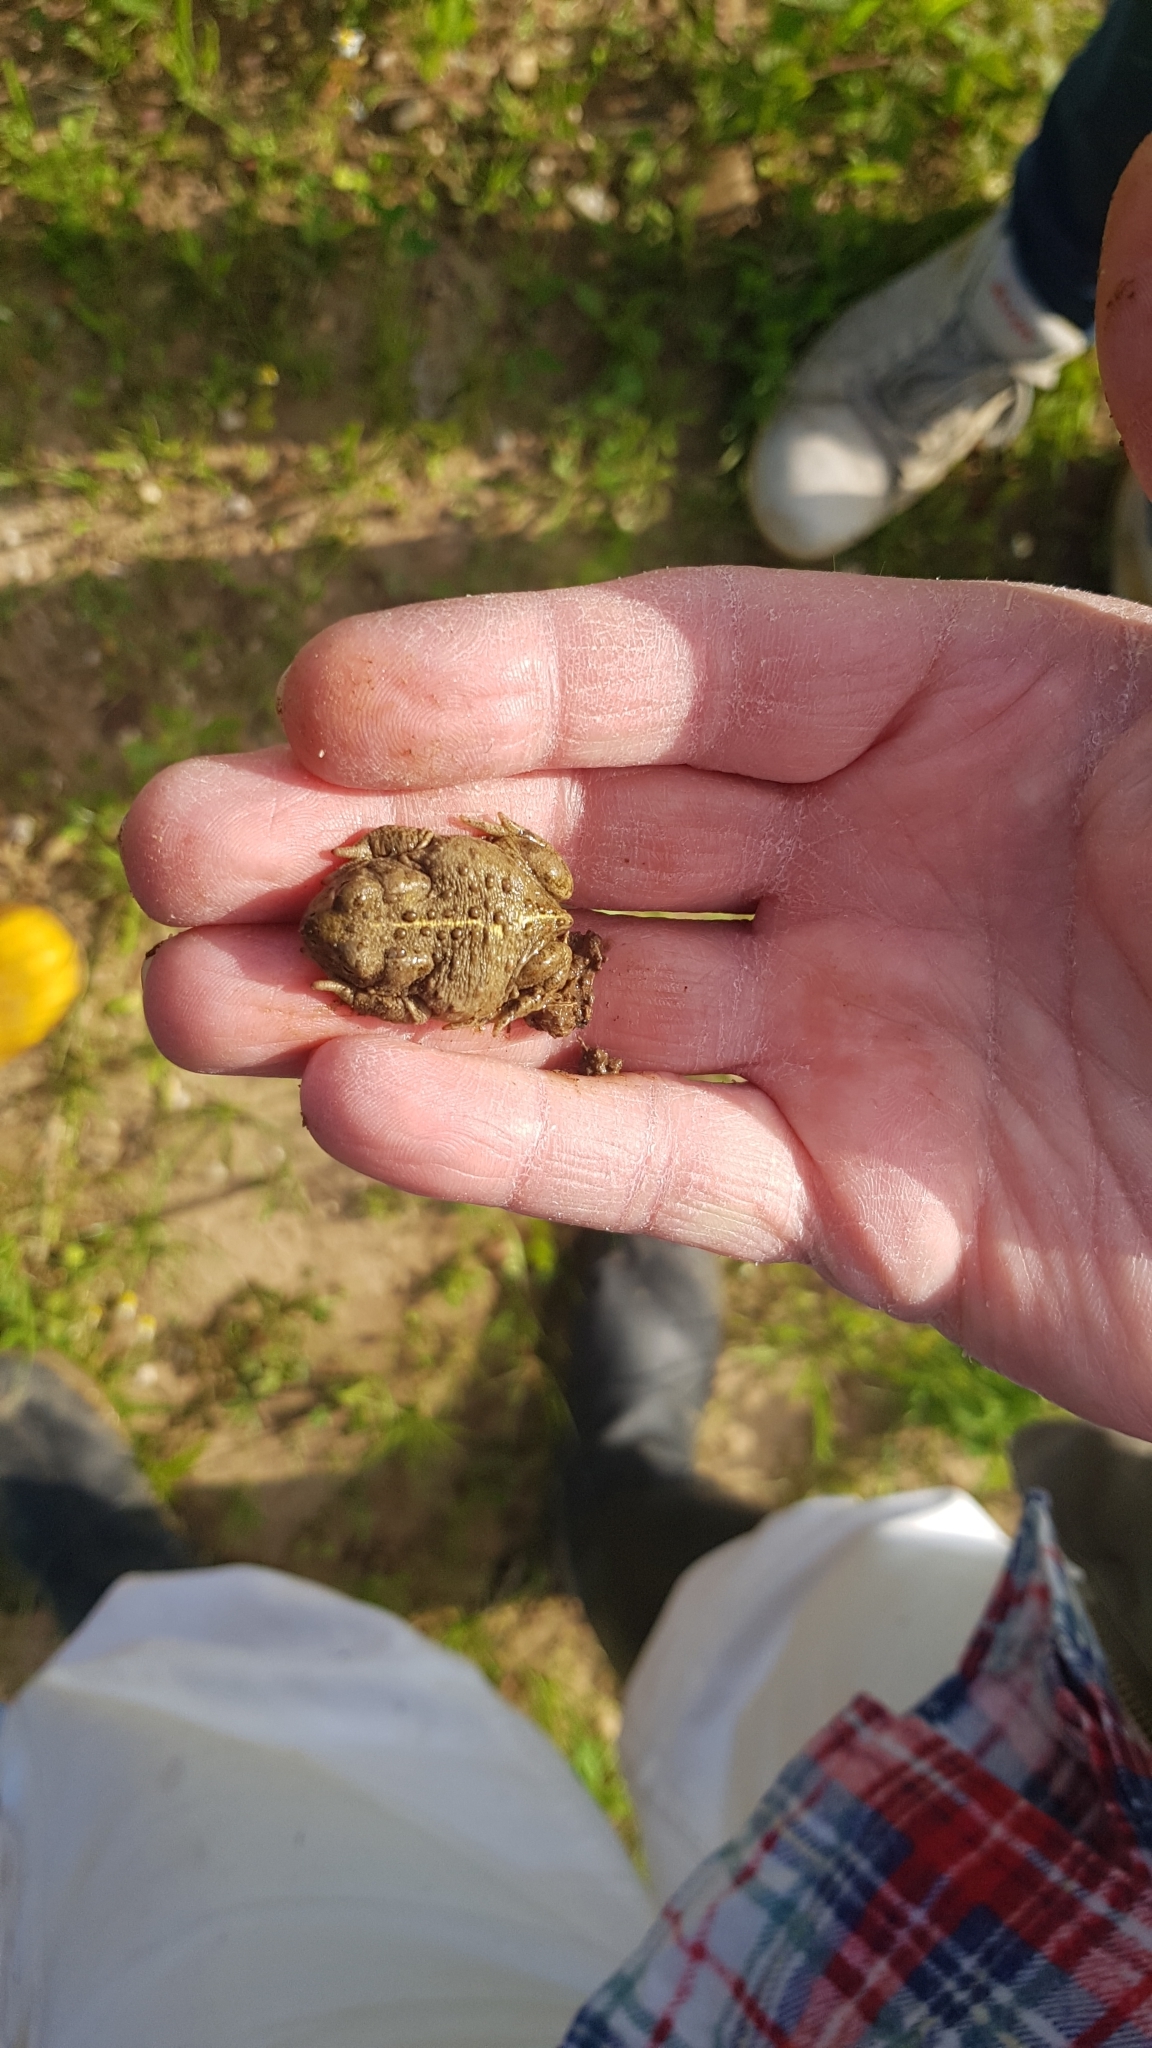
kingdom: Animalia
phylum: Chordata
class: Amphibia
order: Anura
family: Bufonidae
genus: Epidalea
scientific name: Epidalea calamita
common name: Natterjack toad
